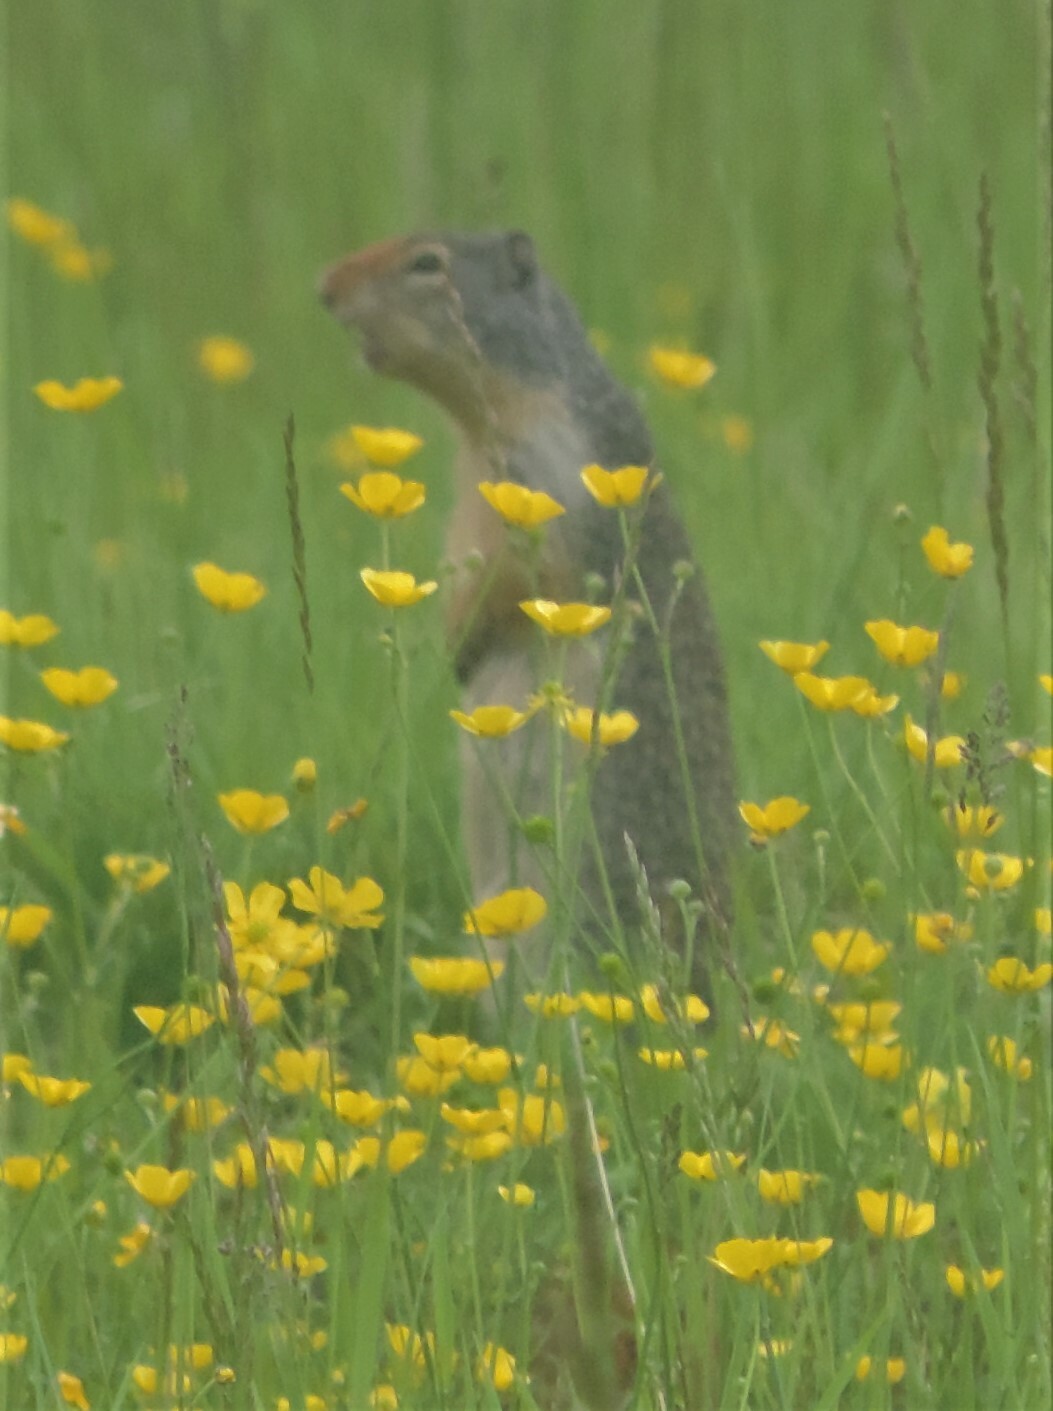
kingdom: Animalia
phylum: Chordata
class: Mammalia
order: Rodentia
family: Sciuridae
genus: Urocitellus
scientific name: Urocitellus columbianus
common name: Columbian ground squirrel
